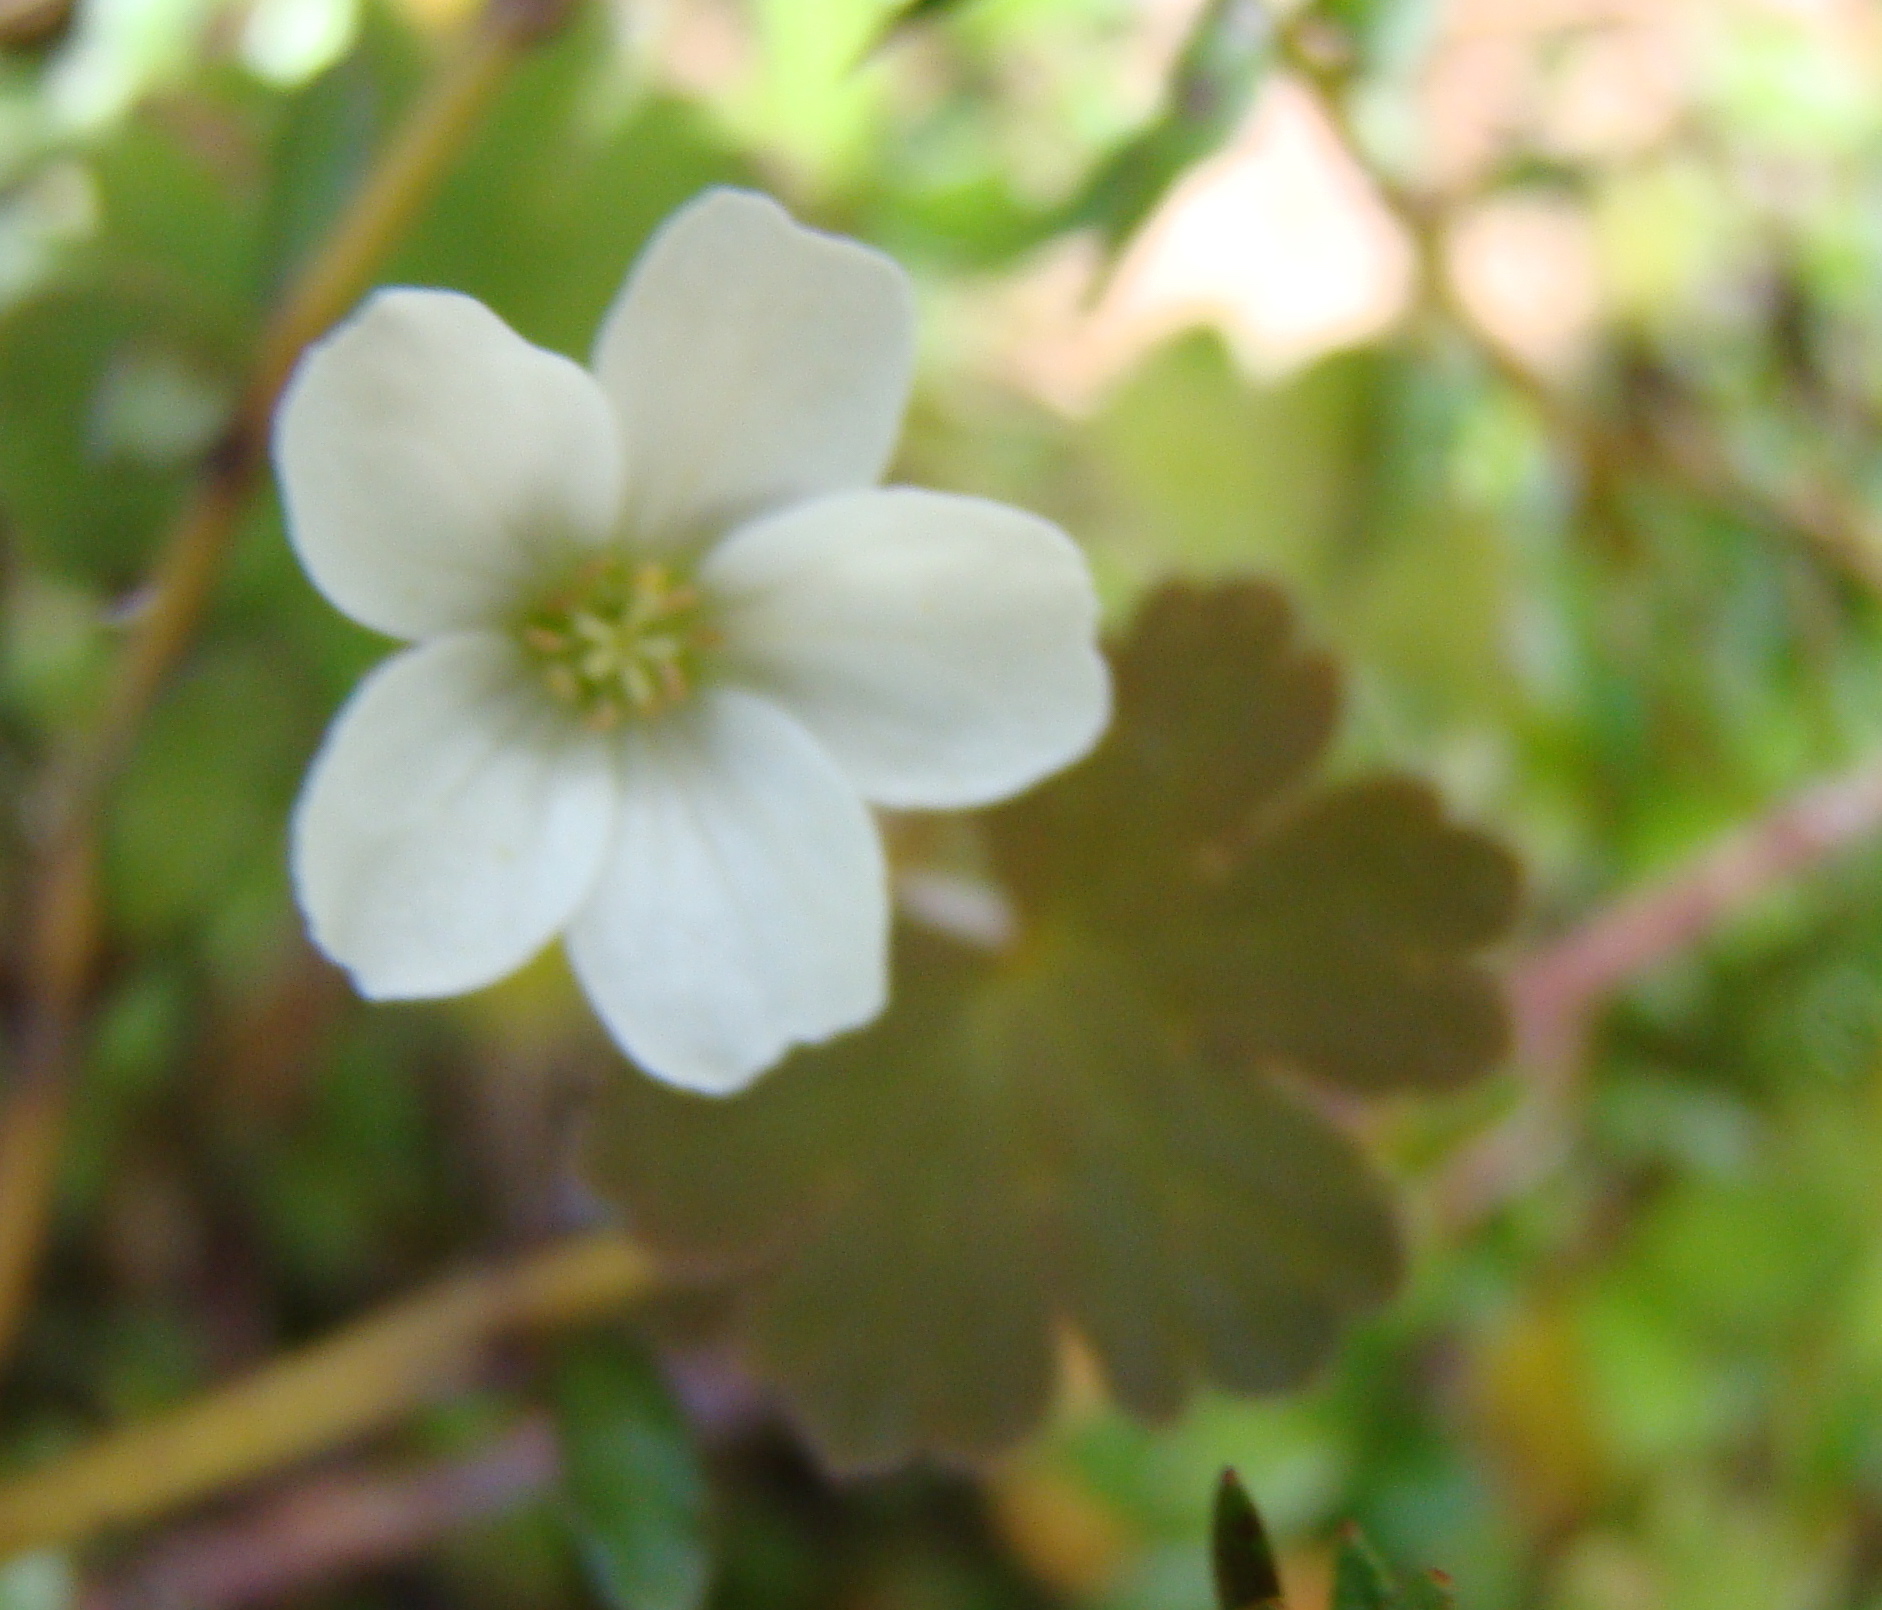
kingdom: Plantae
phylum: Tracheophyta
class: Magnoliopsida
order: Geraniales
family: Geraniaceae
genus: Geranium
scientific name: Geranium
